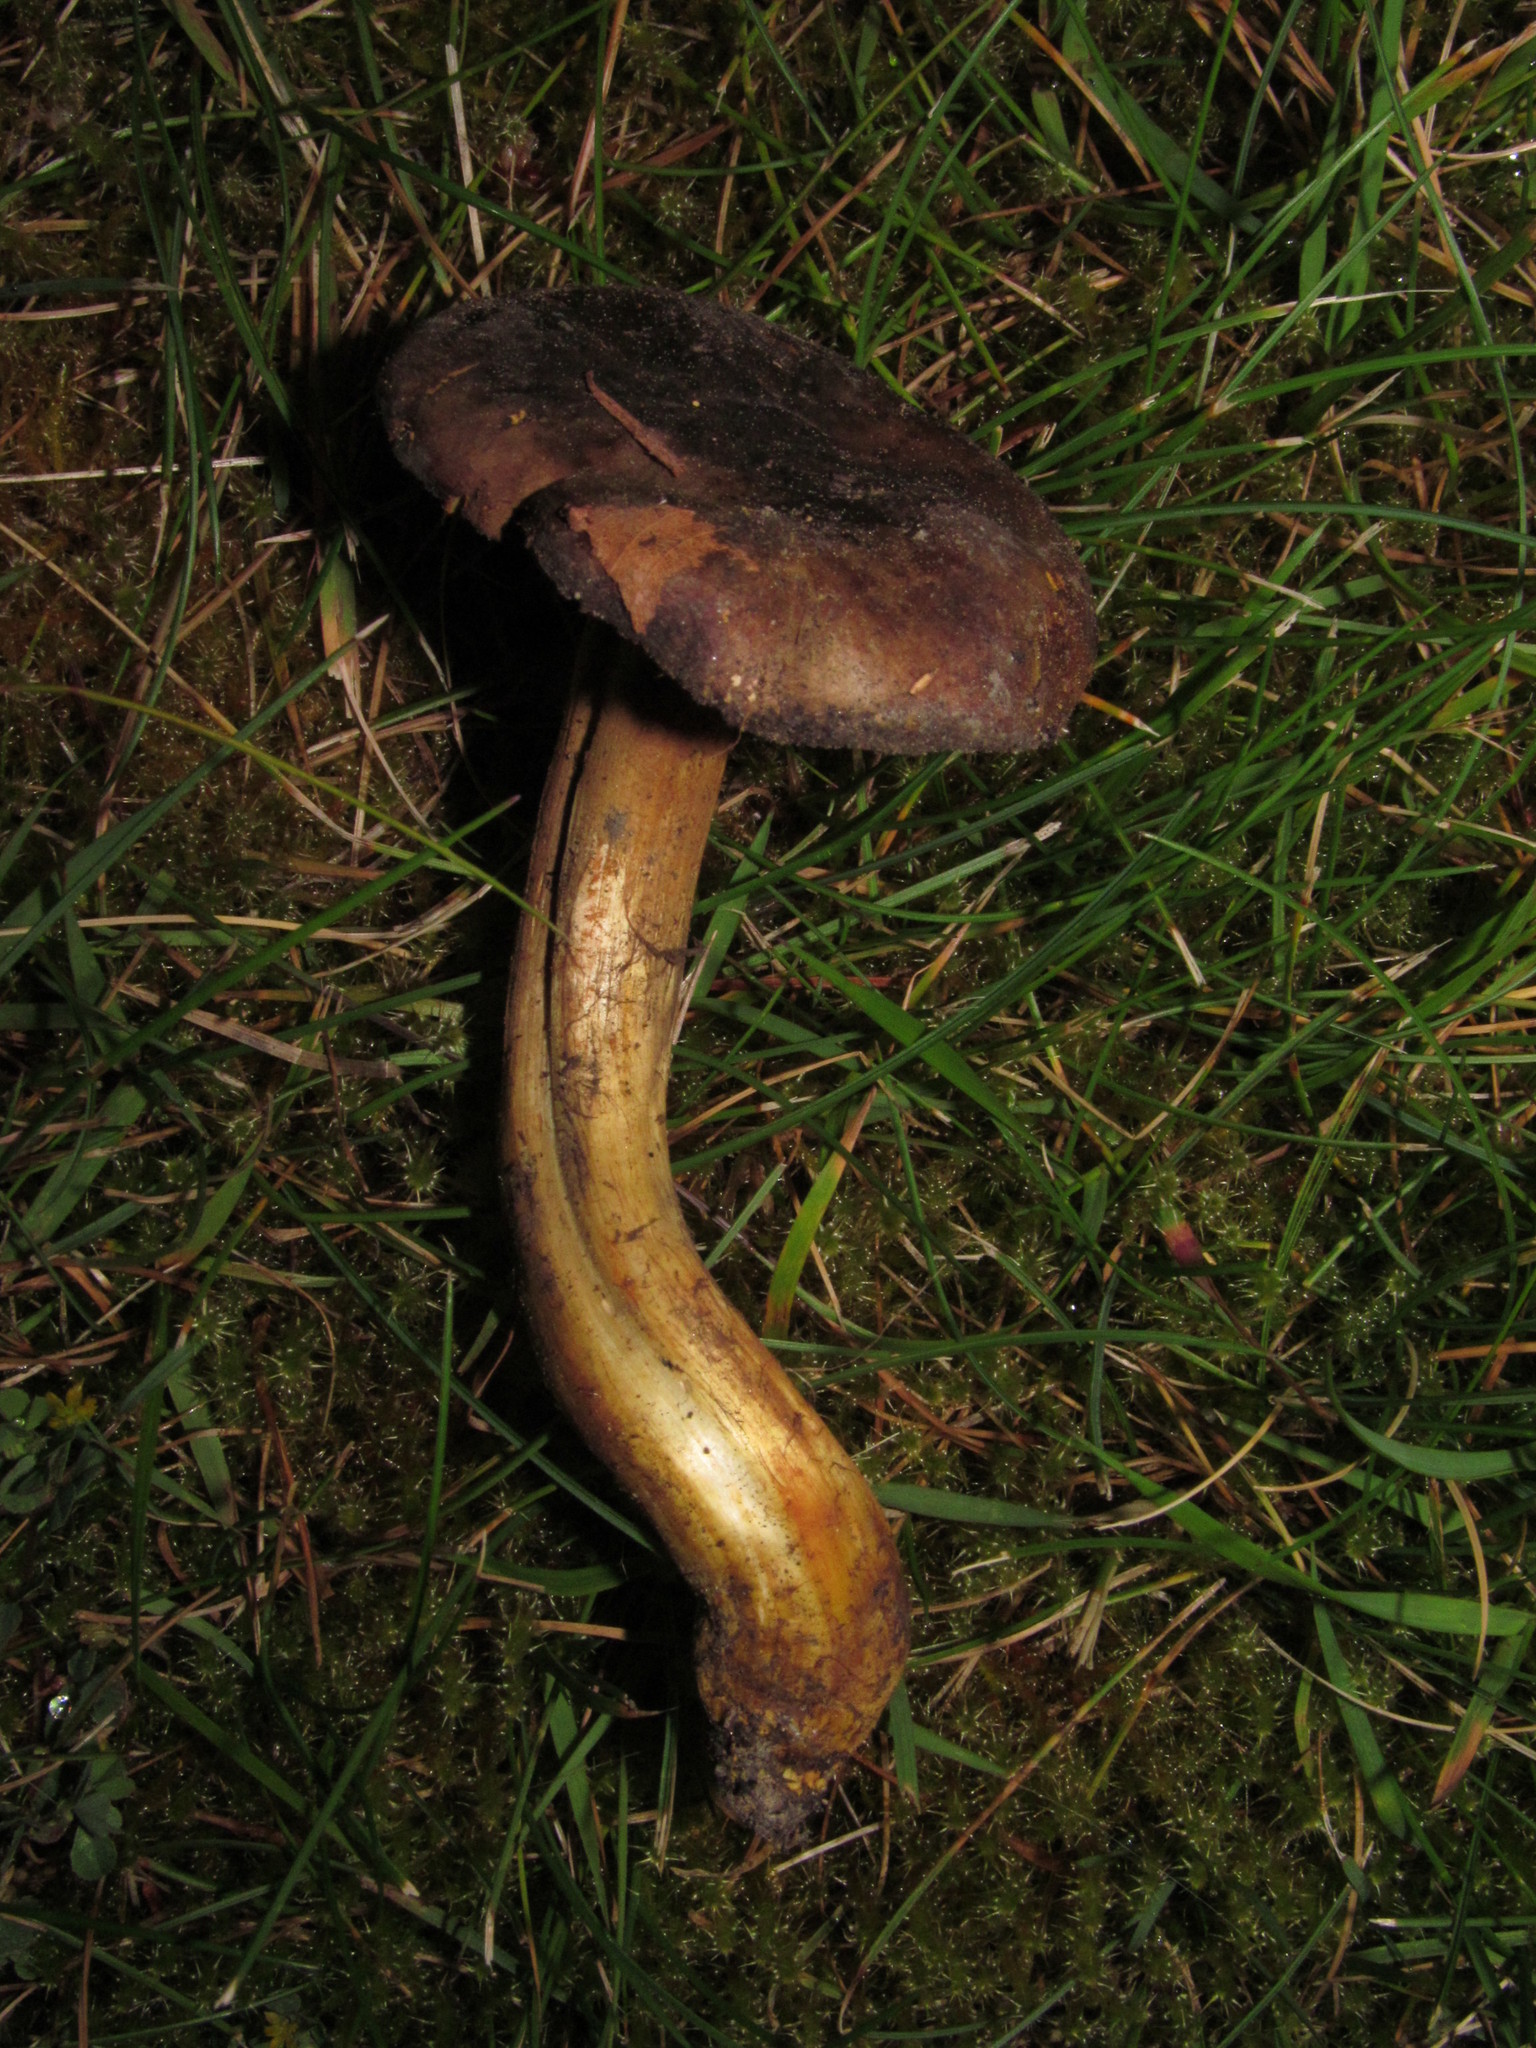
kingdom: Fungi
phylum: Basidiomycota
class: Agaricomycetes
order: Boletales
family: Boletaceae
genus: Phylloporus
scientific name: Phylloporus arenicola
